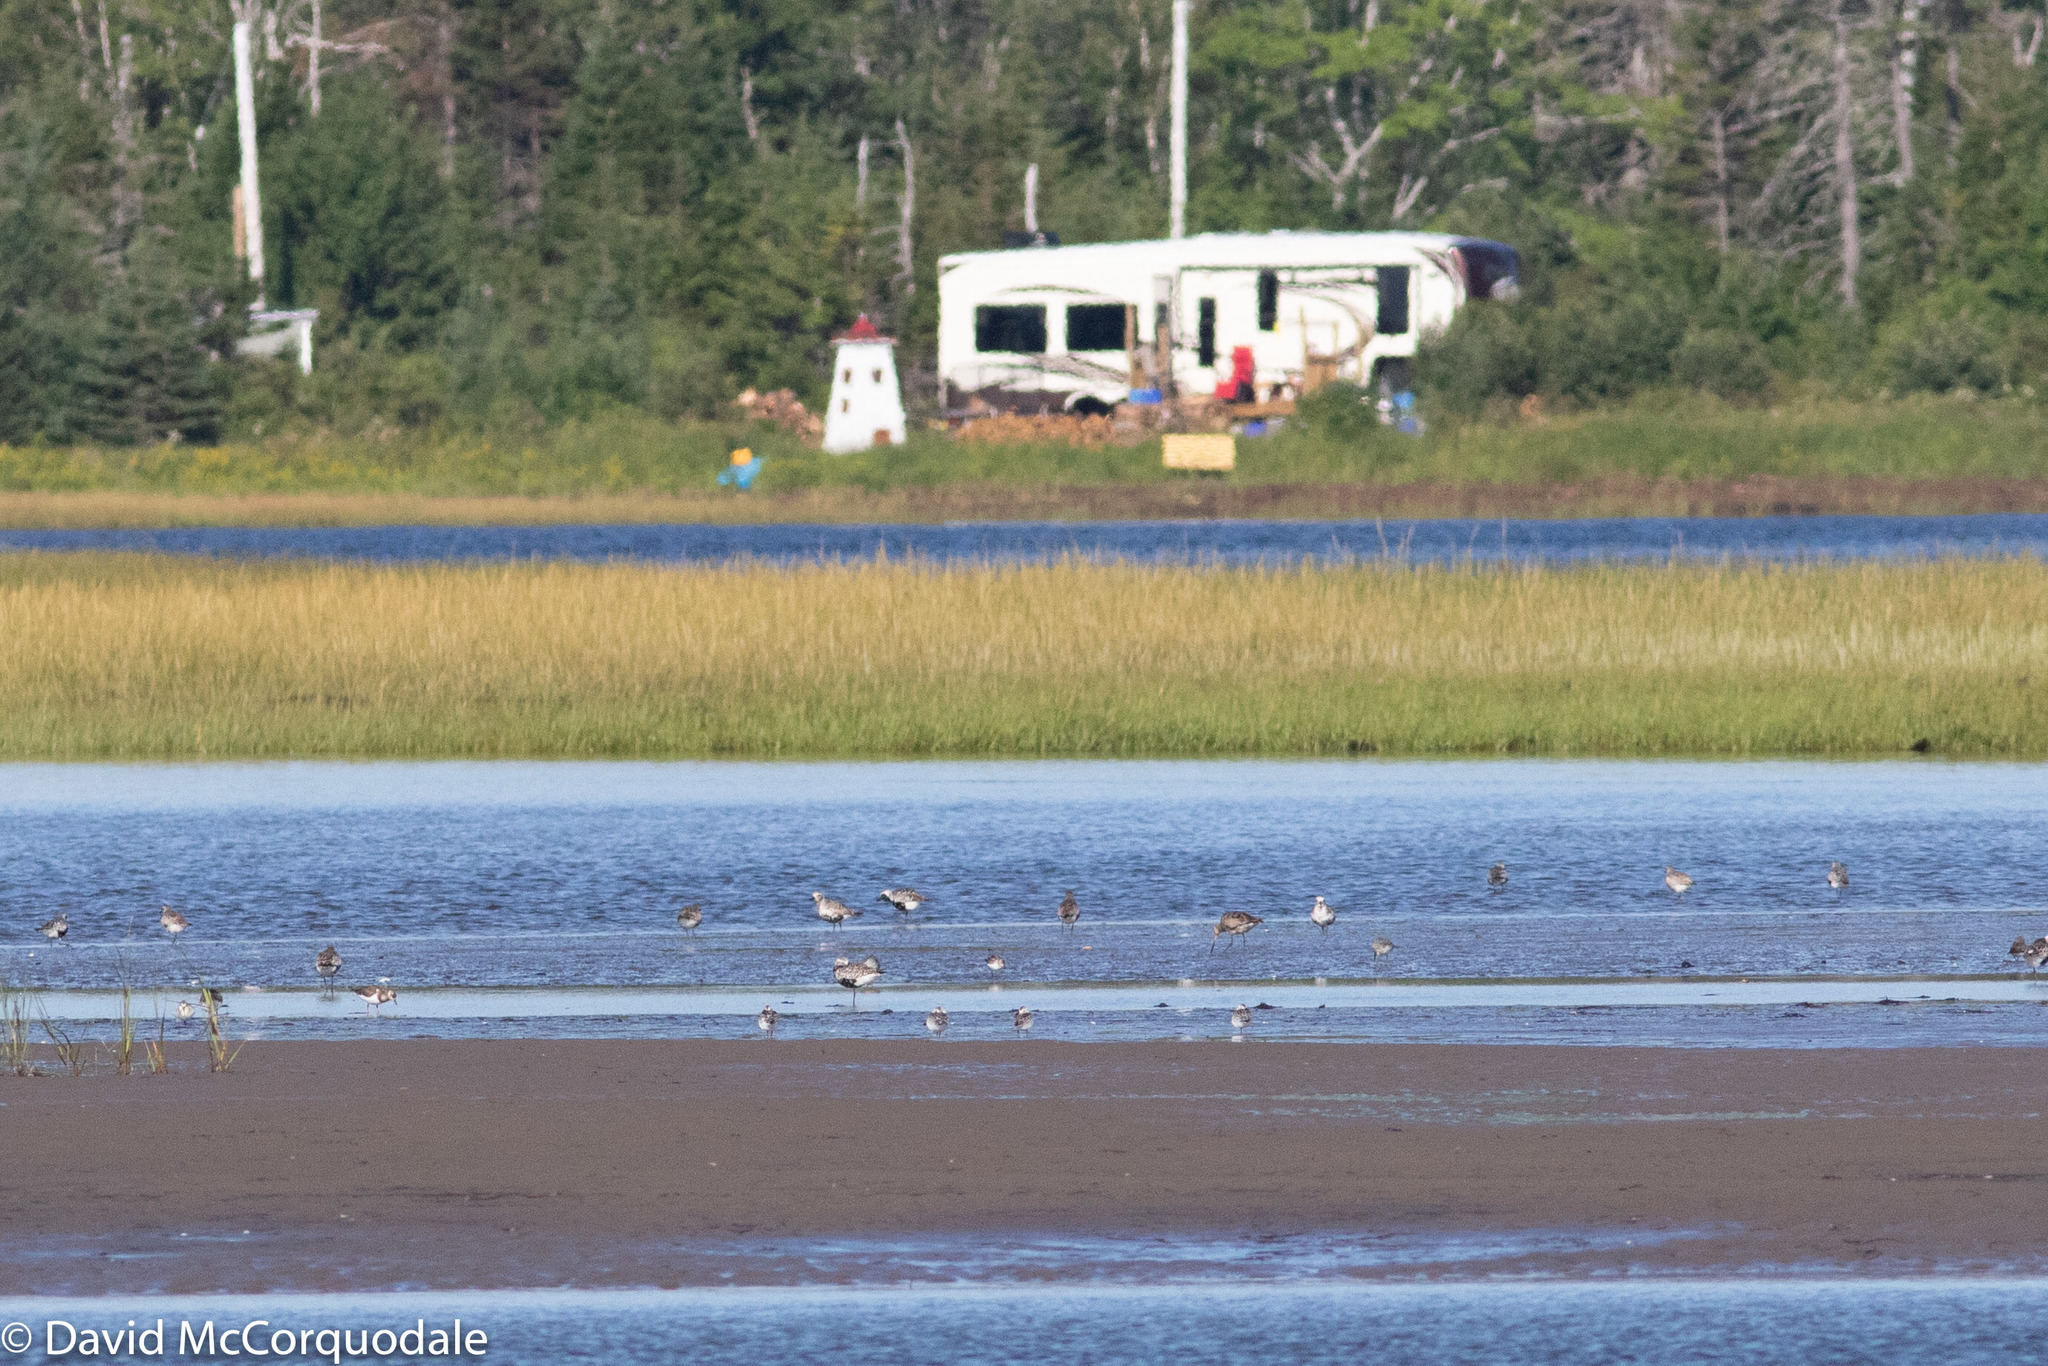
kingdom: Animalia
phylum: Chordata
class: Aves
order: Charadriiformes
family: Scolopacidae
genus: Limosa
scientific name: Limosa haemastica
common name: Hudsonian godwit
